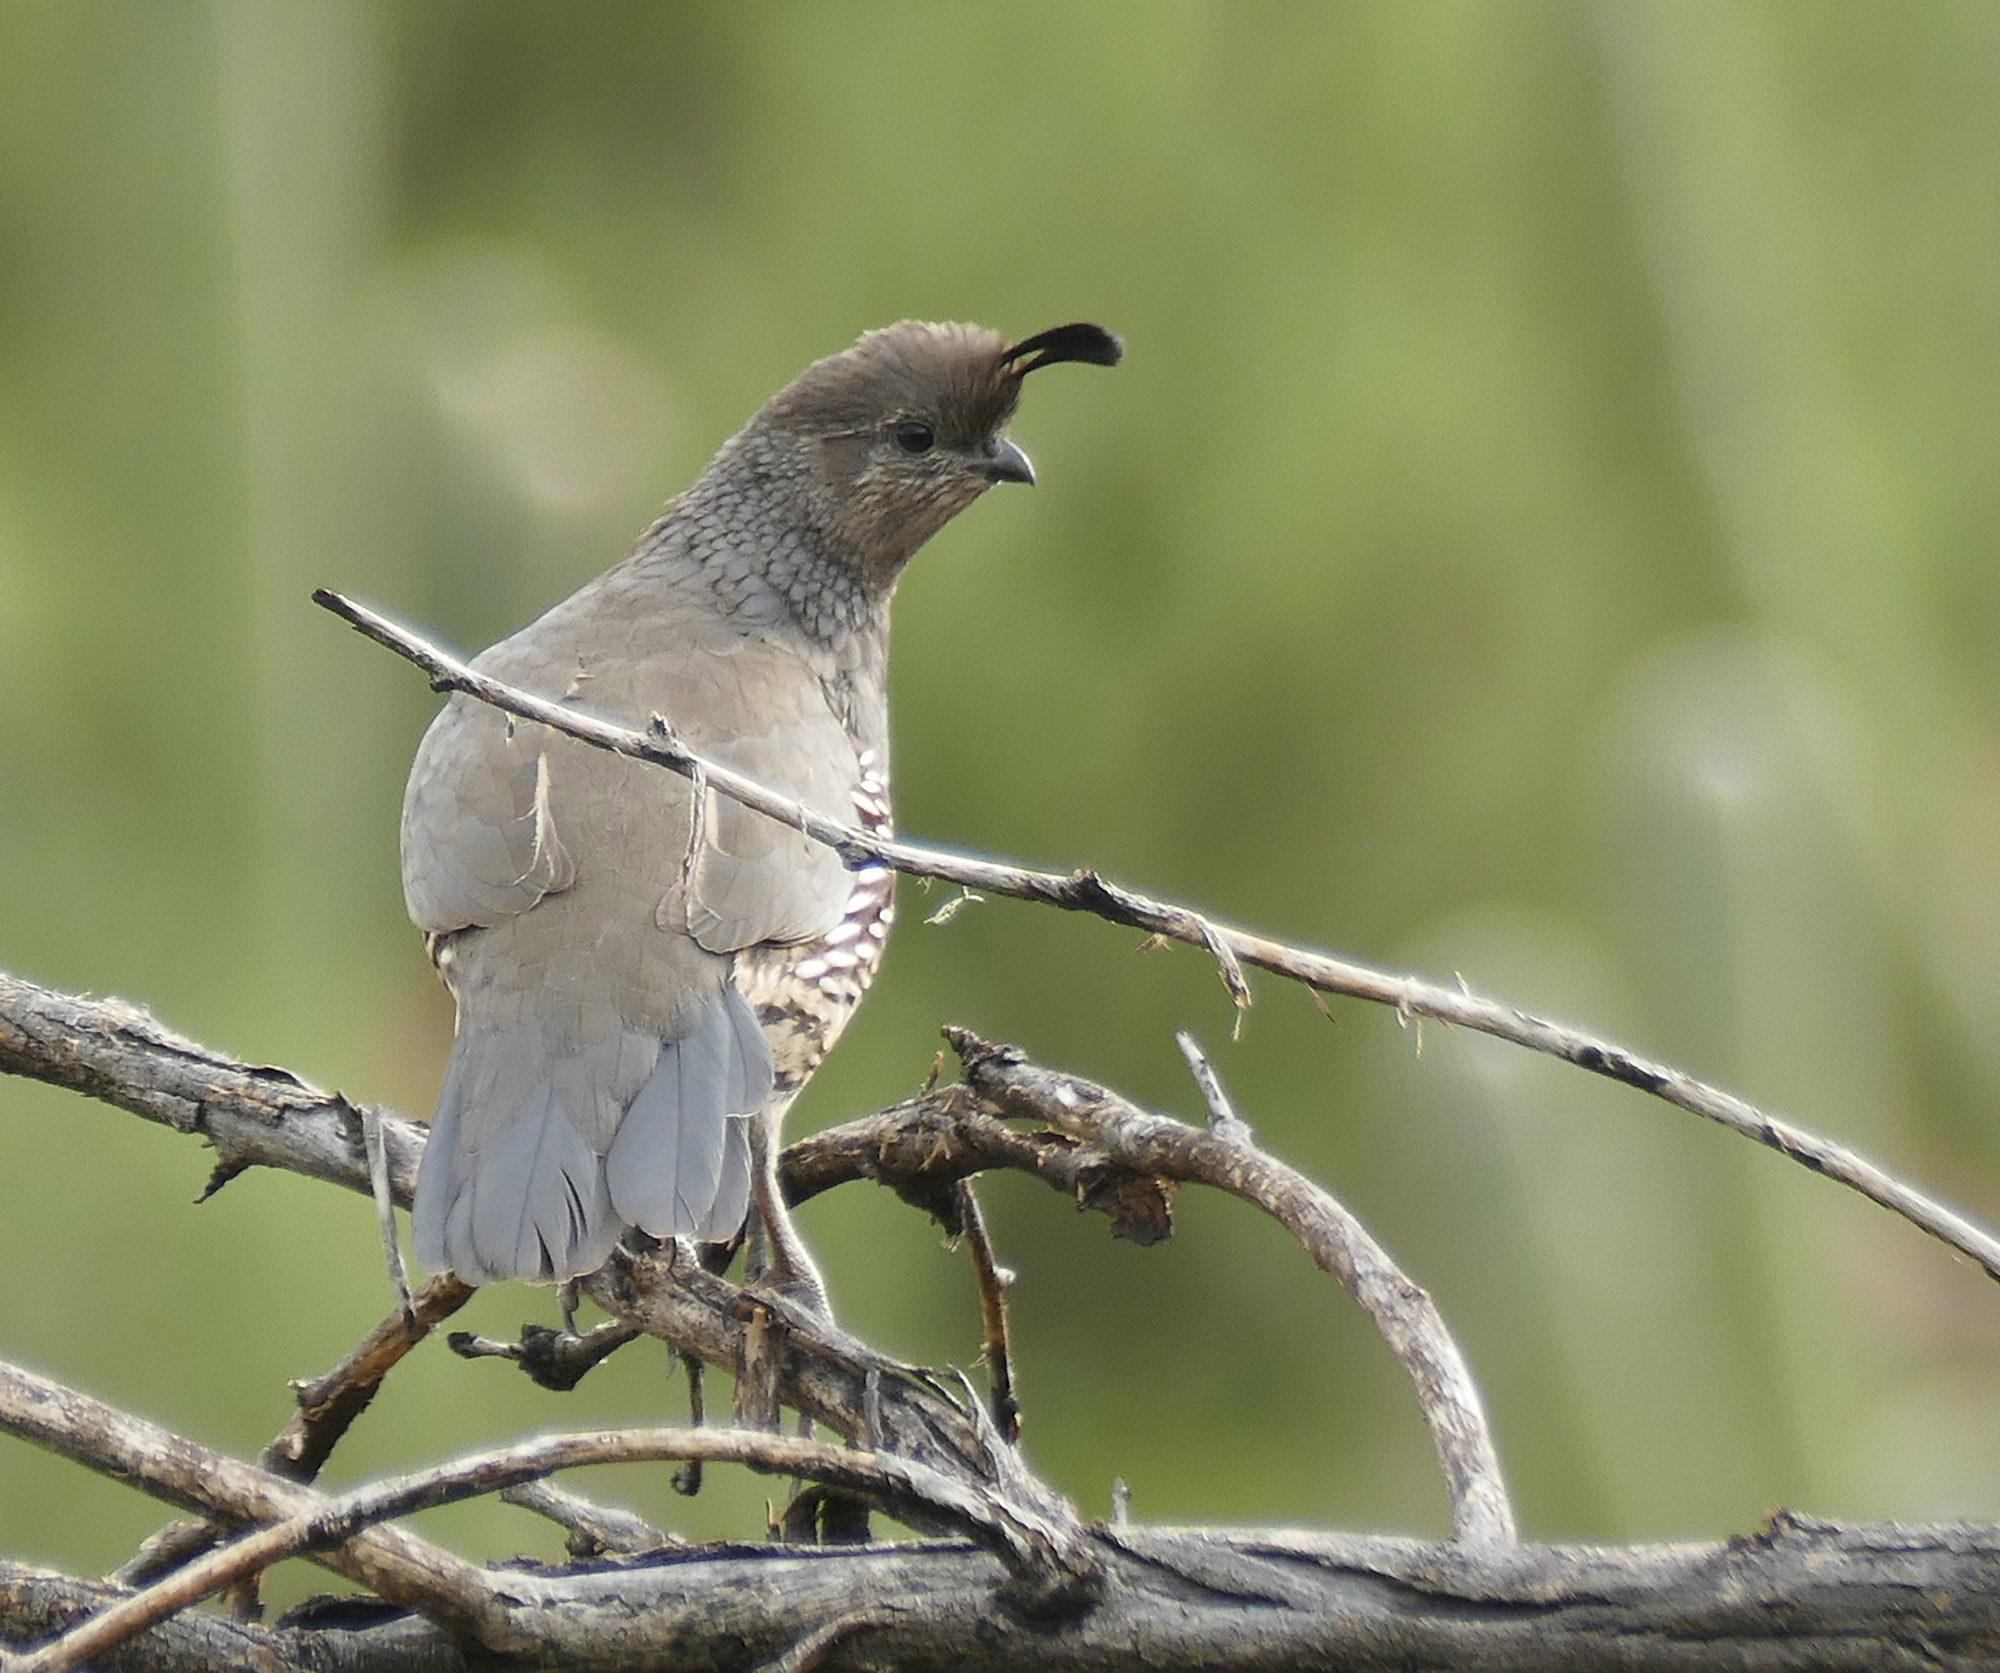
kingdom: Animalia
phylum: Chordata
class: Aves
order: Galliformes
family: Odontophoridae
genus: Callipepla
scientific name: Callipepla gambelii
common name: Gambel's quail
